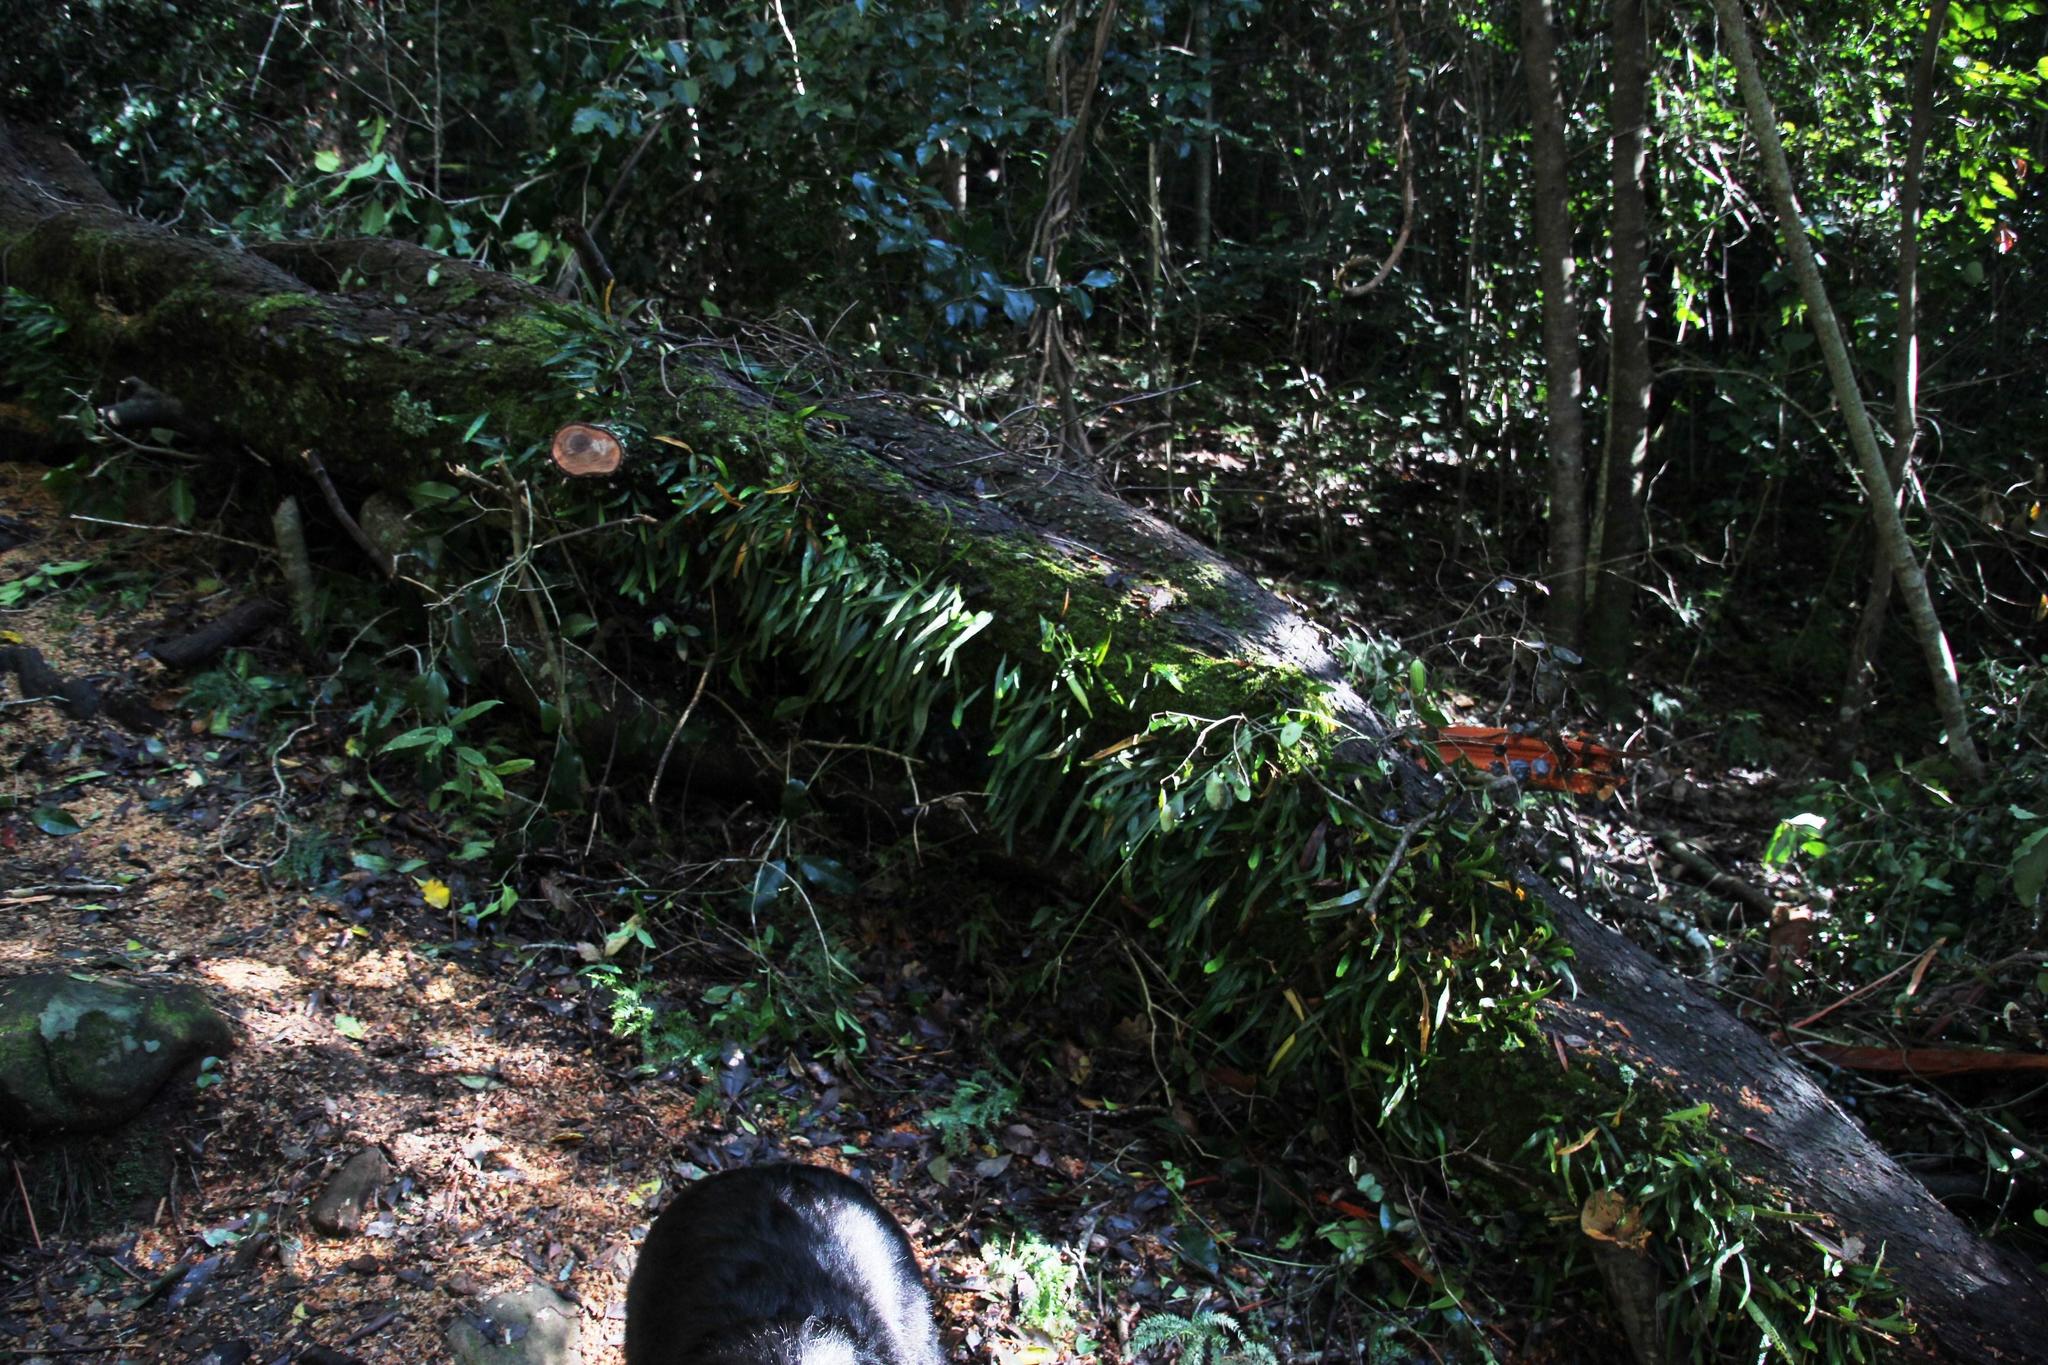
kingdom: Plantae
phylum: Tracheophyta
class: Polypodiopsida
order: Polypodiales
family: Polypodiaceae
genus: Pleopeltis
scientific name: Pleopeltis macrocarpa
